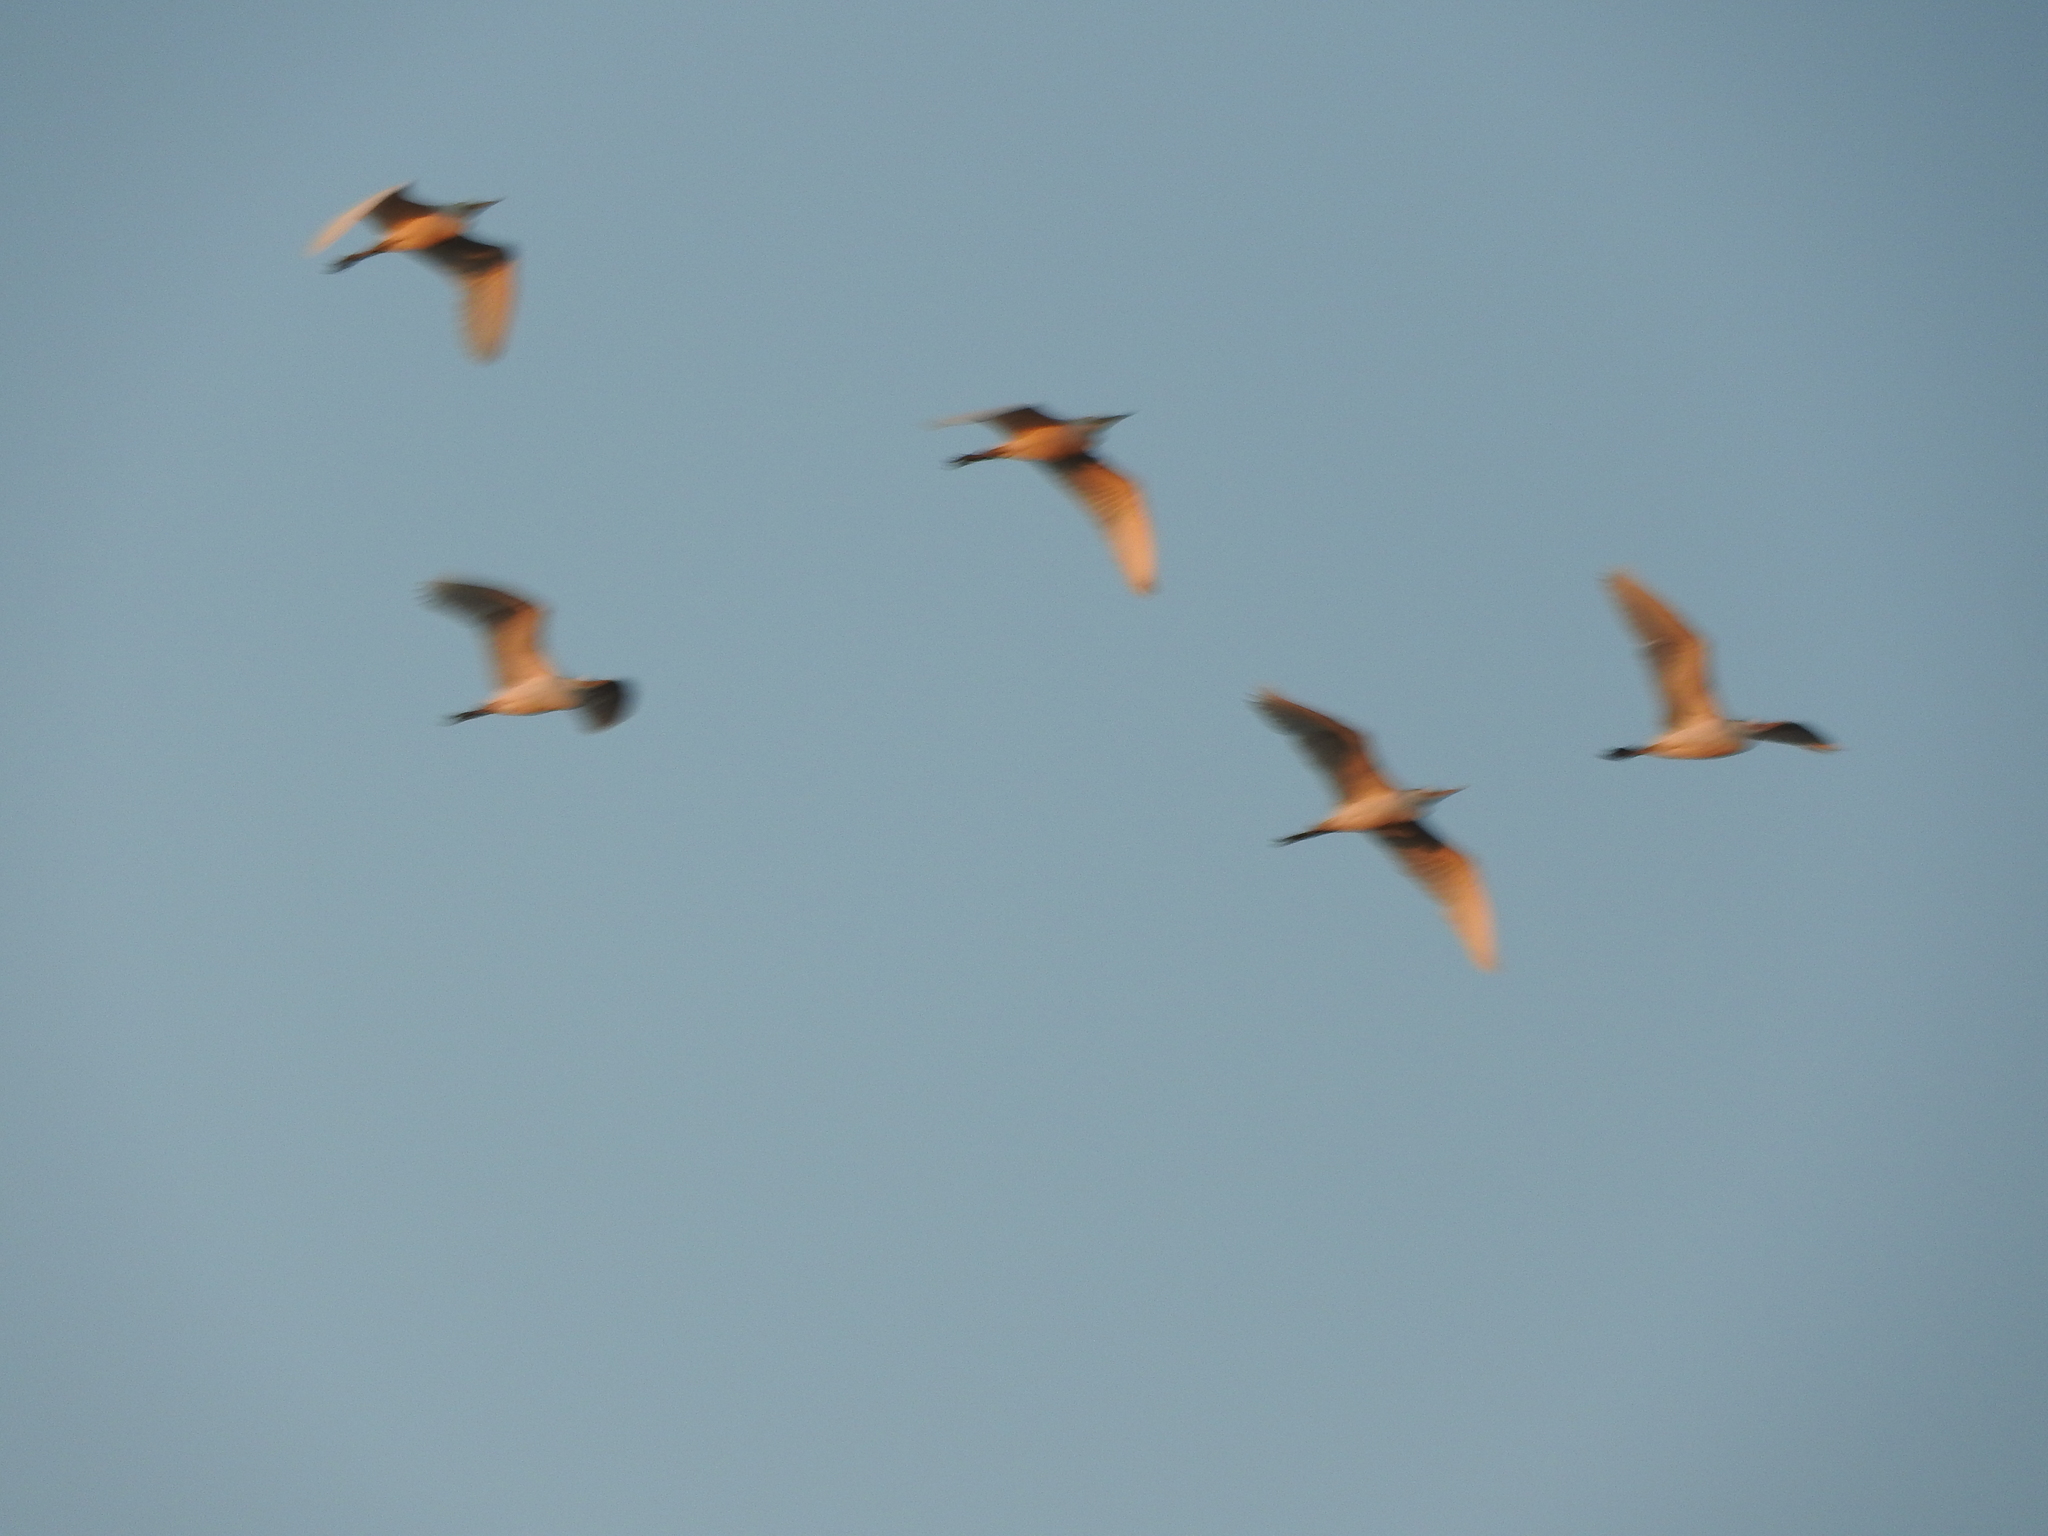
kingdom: Animalia
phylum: Chordata
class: Aves
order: Pelecaniformes
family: Ardeidae
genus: Bubulcus
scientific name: Bubulcus ibis
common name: Cattle egret
